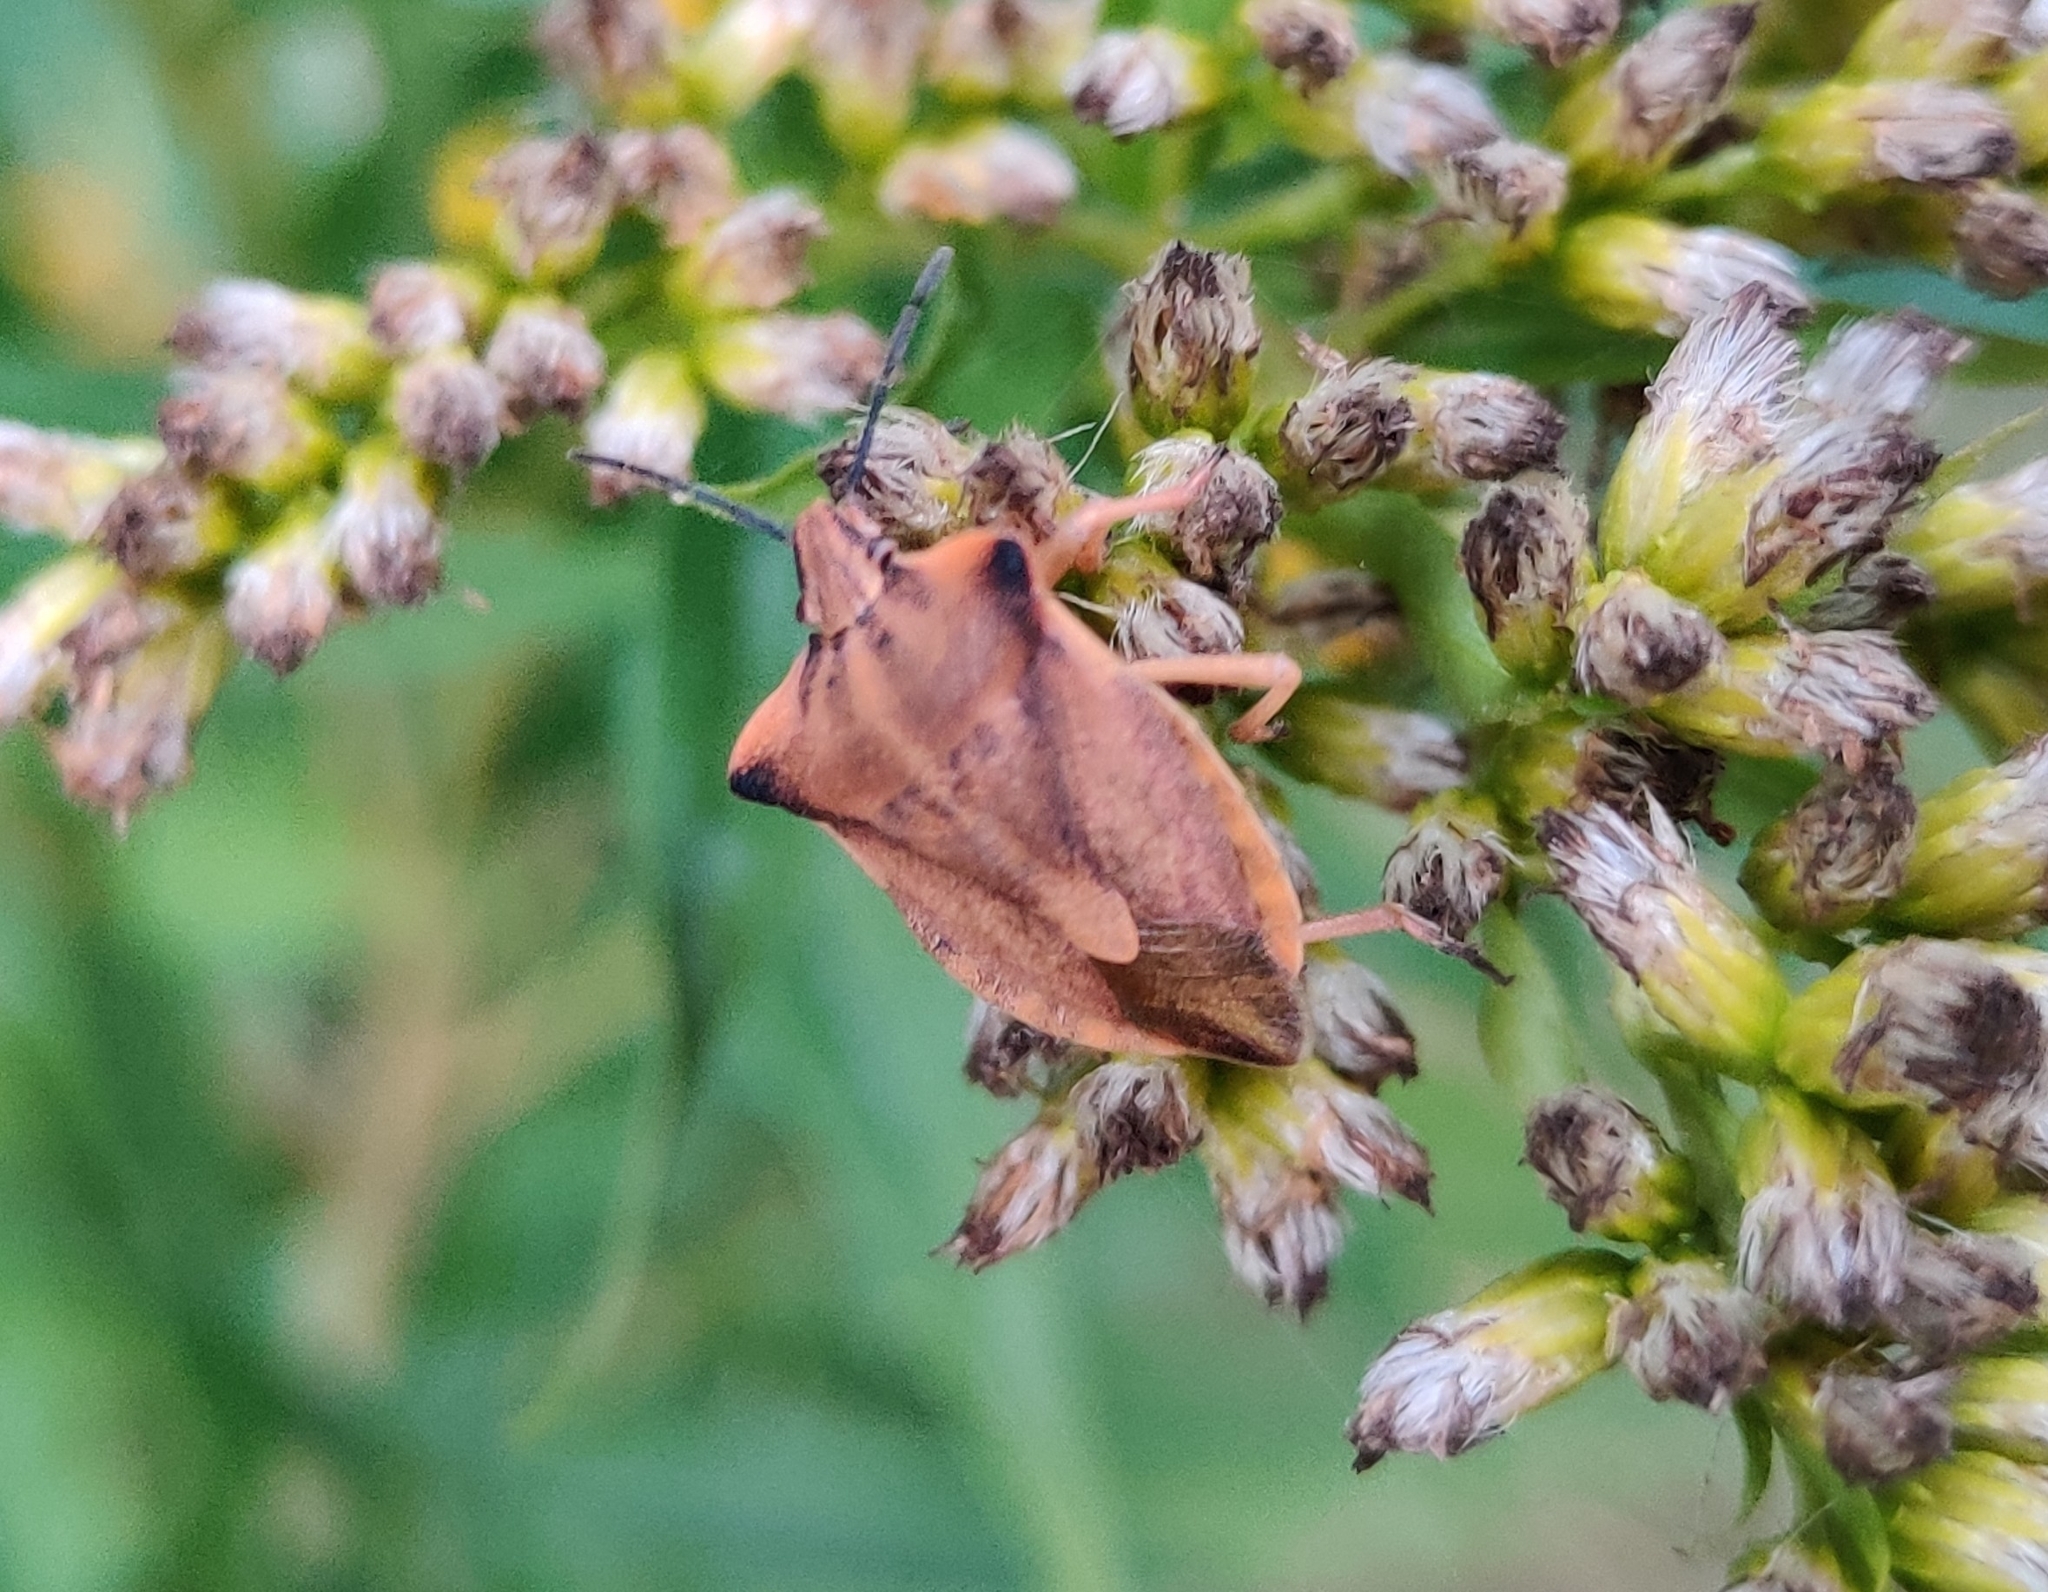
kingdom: Animalia
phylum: Arthropoda
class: Insecta
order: Hemiptera
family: Pentatomidae
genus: Carpocoris
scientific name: Carpocoris fuscispinus
